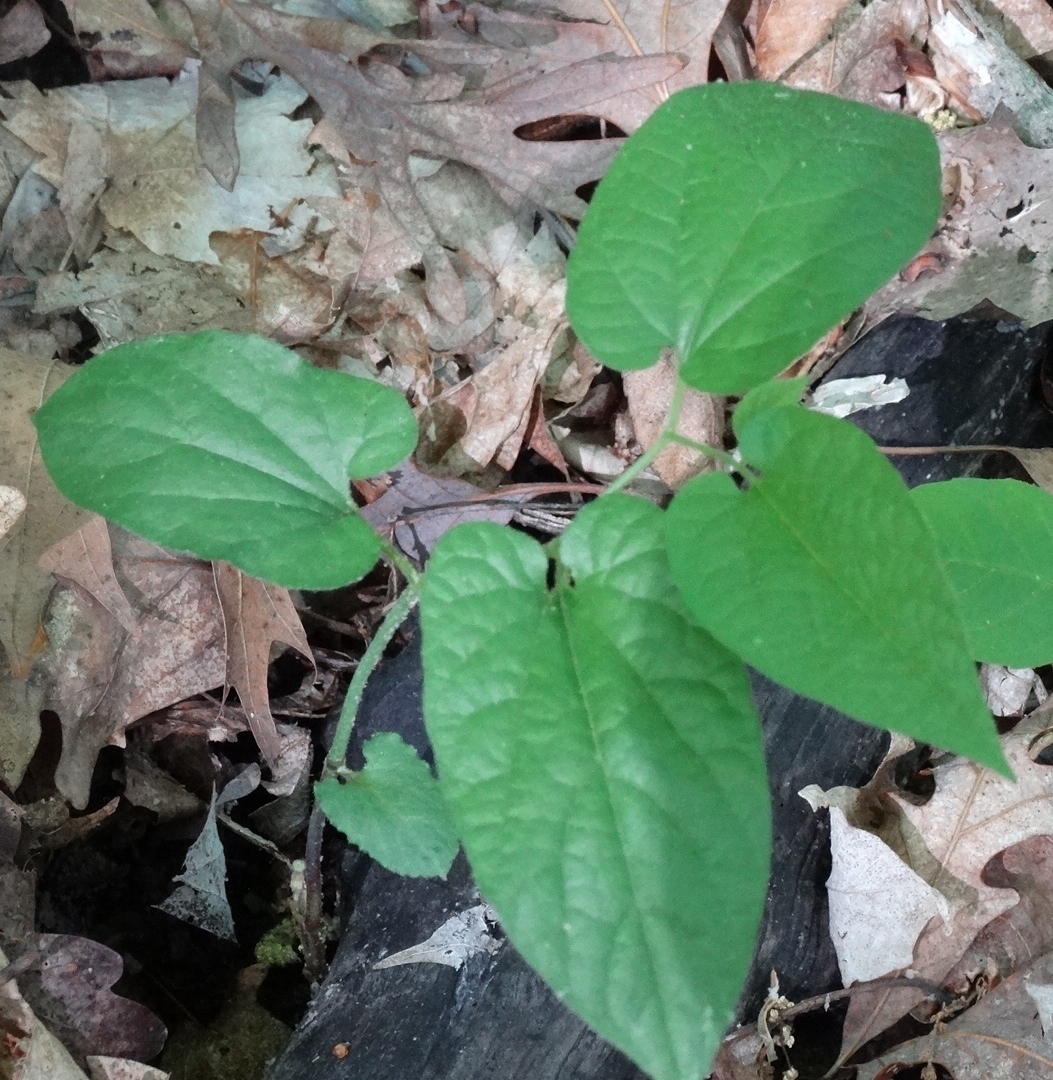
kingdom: Plantae
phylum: Tracheophyta
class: Magnoliopsida
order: Piperales
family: Aristolochiaceae
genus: Endodeca
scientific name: Endodeca serpentaria
